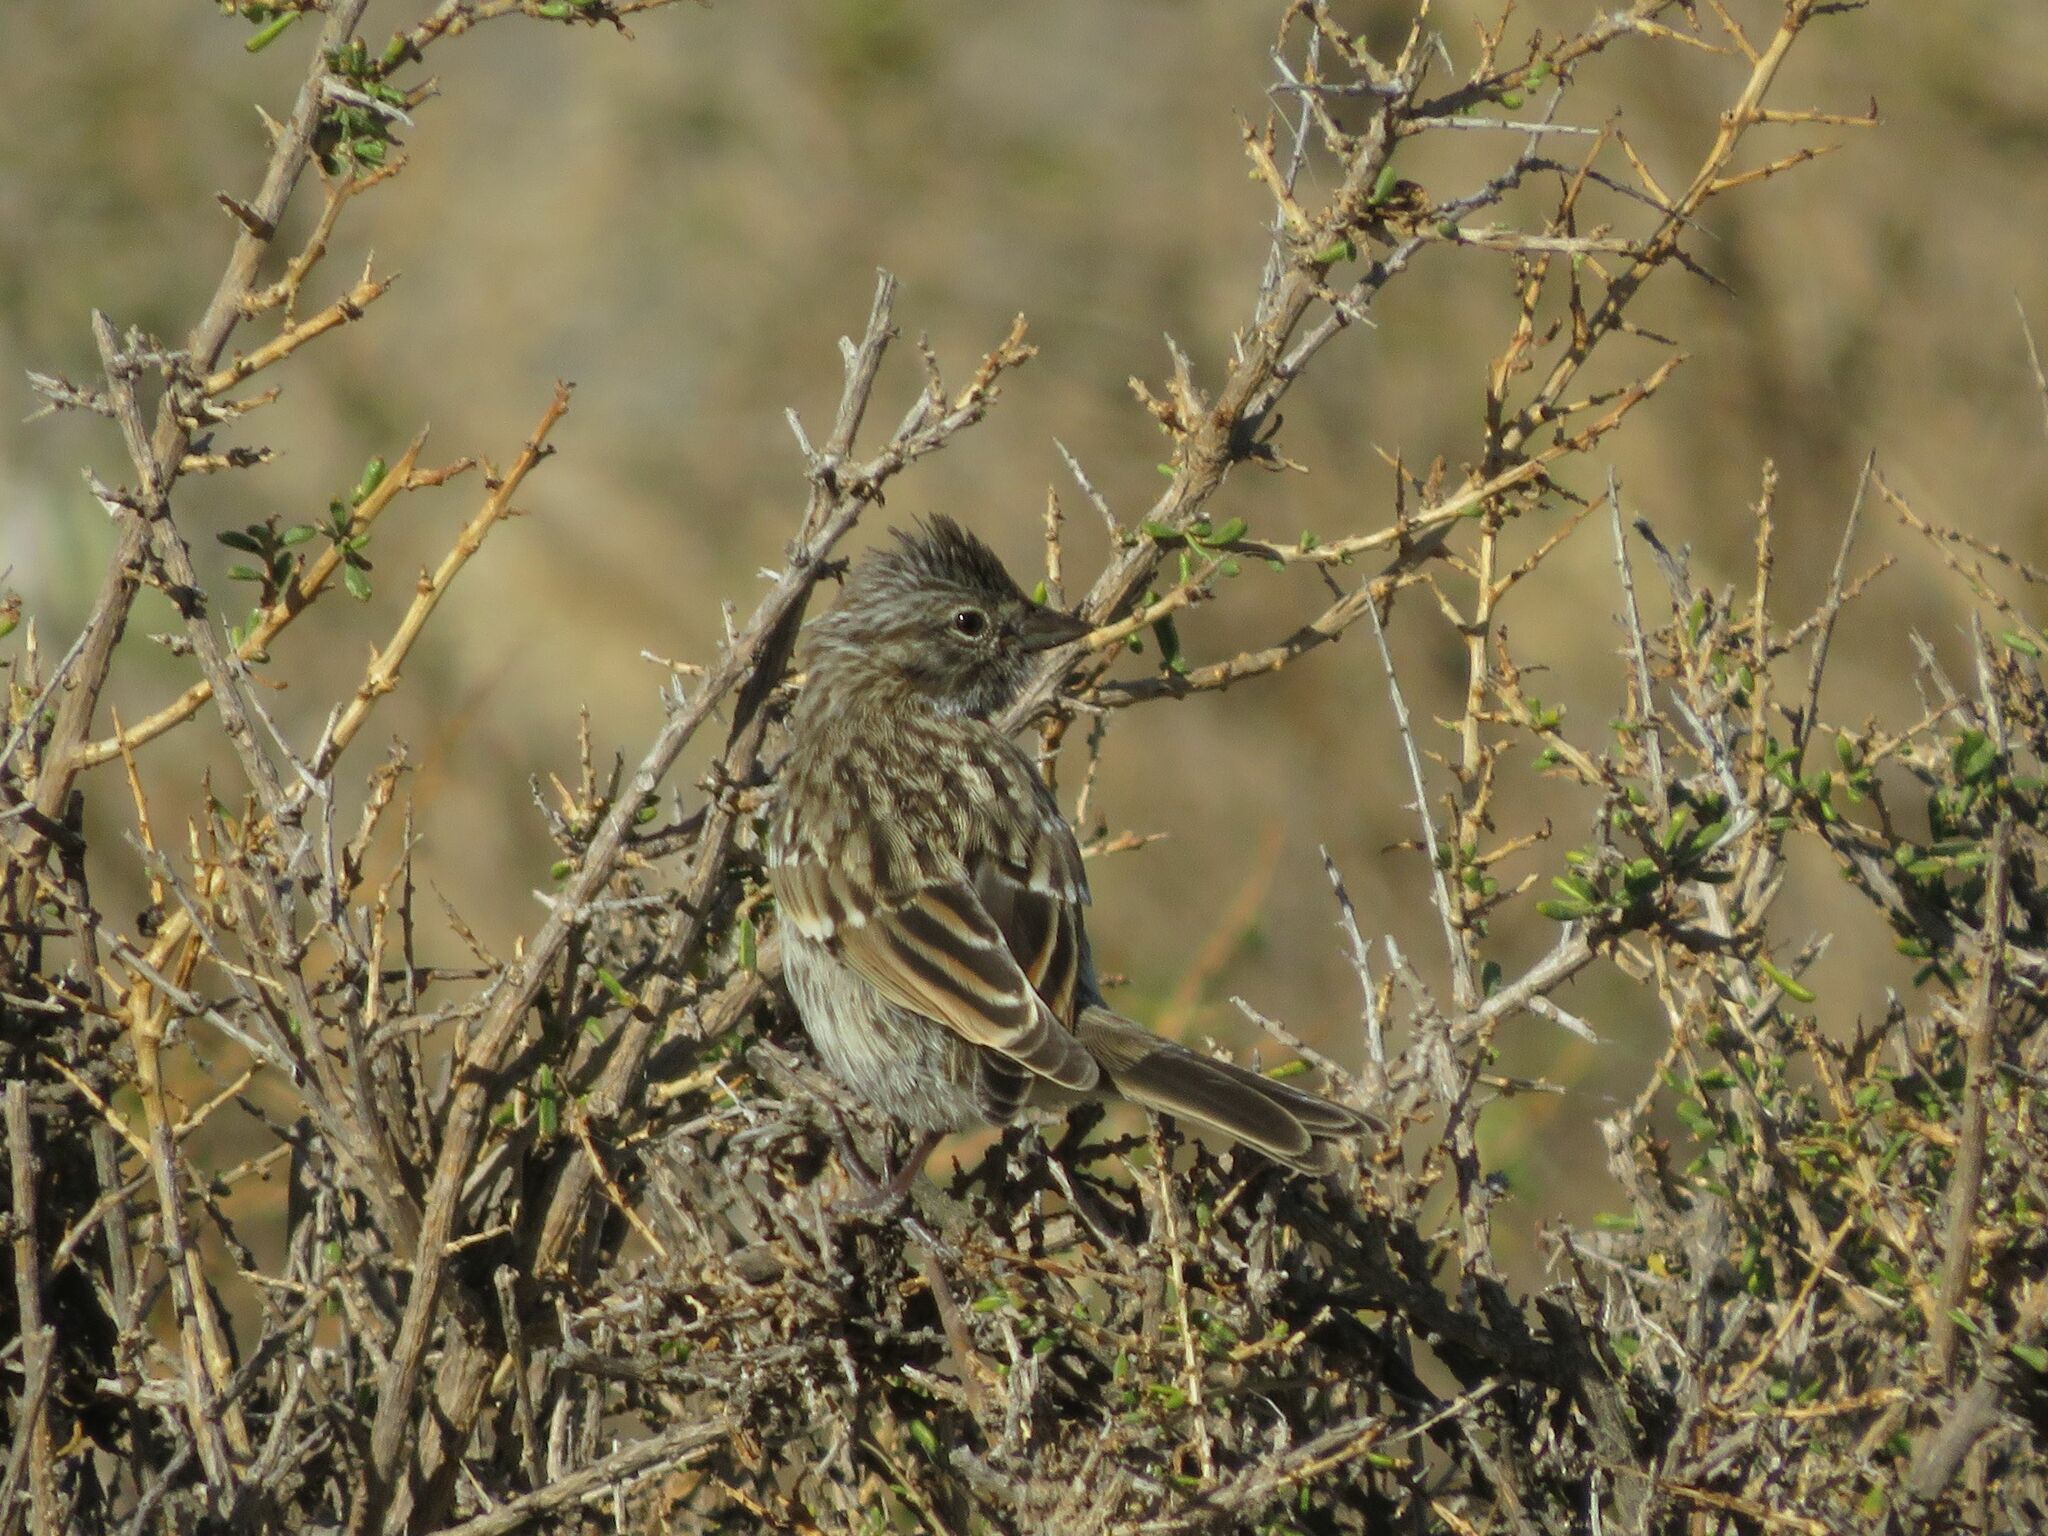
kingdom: Animalia
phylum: Chordata
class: Aves
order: Passeriformes
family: Passerellidae
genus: Zonotrichia
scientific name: Zonotrichia capensis
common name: Rufous-collared sparrow
